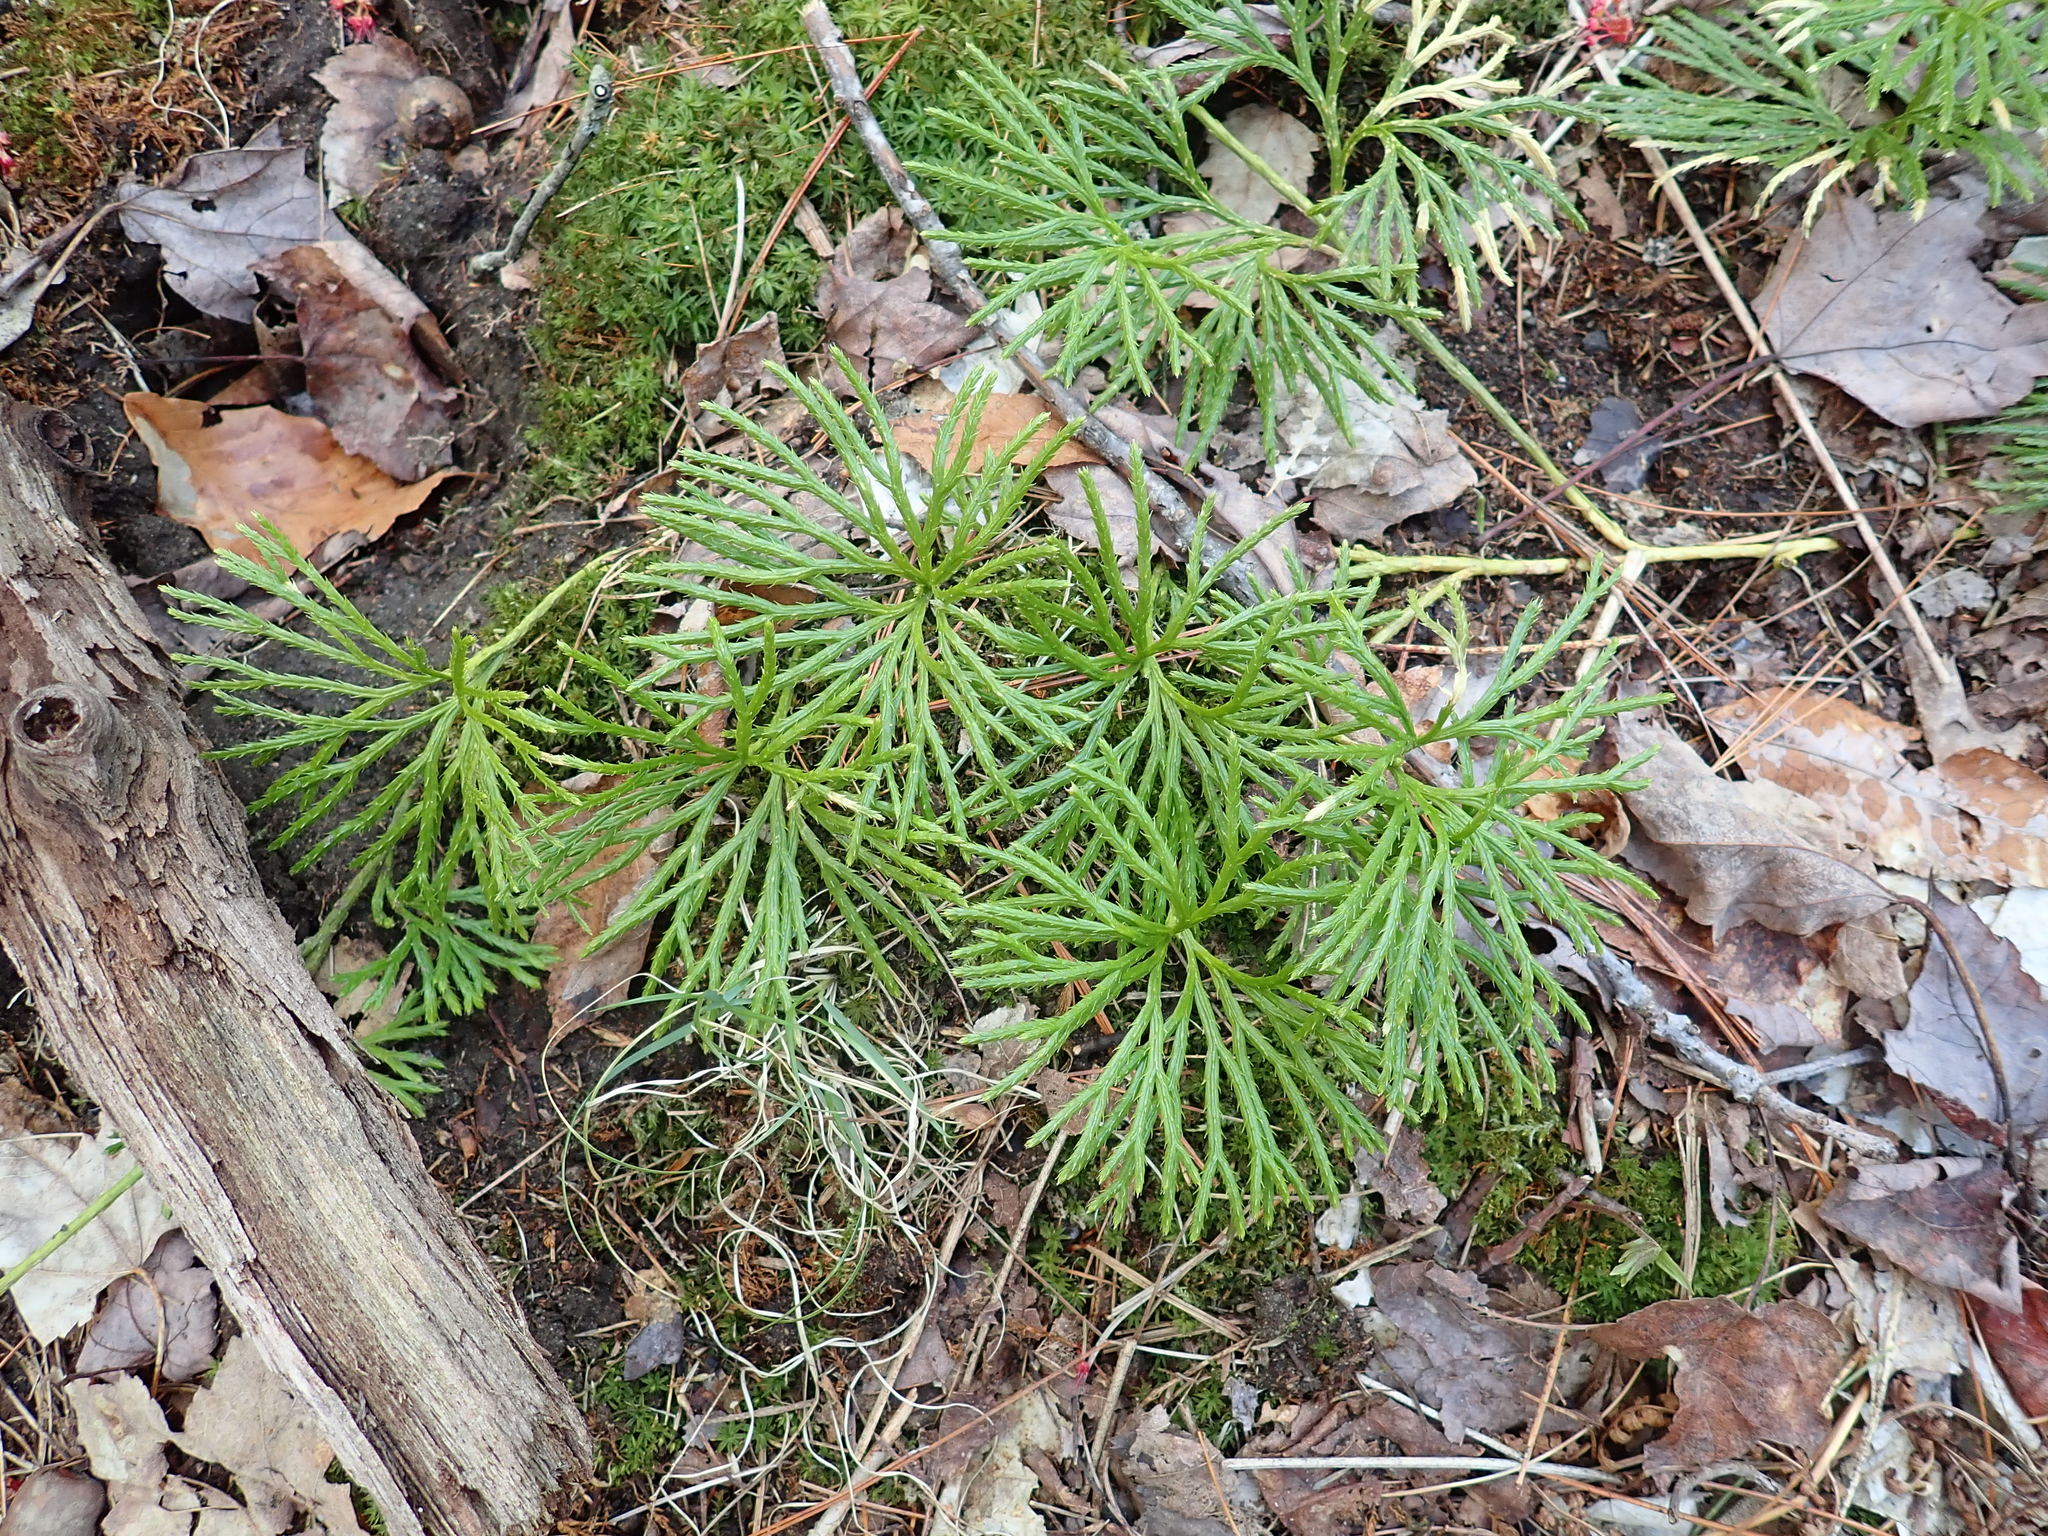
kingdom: Plantae
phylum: Tracheophyta
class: Lycopodiopsida
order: Lycopodiales
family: Lycopodiaceae
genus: Diphasiastrum
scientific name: Diphasiastrum digitatum
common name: Southern running-pine
